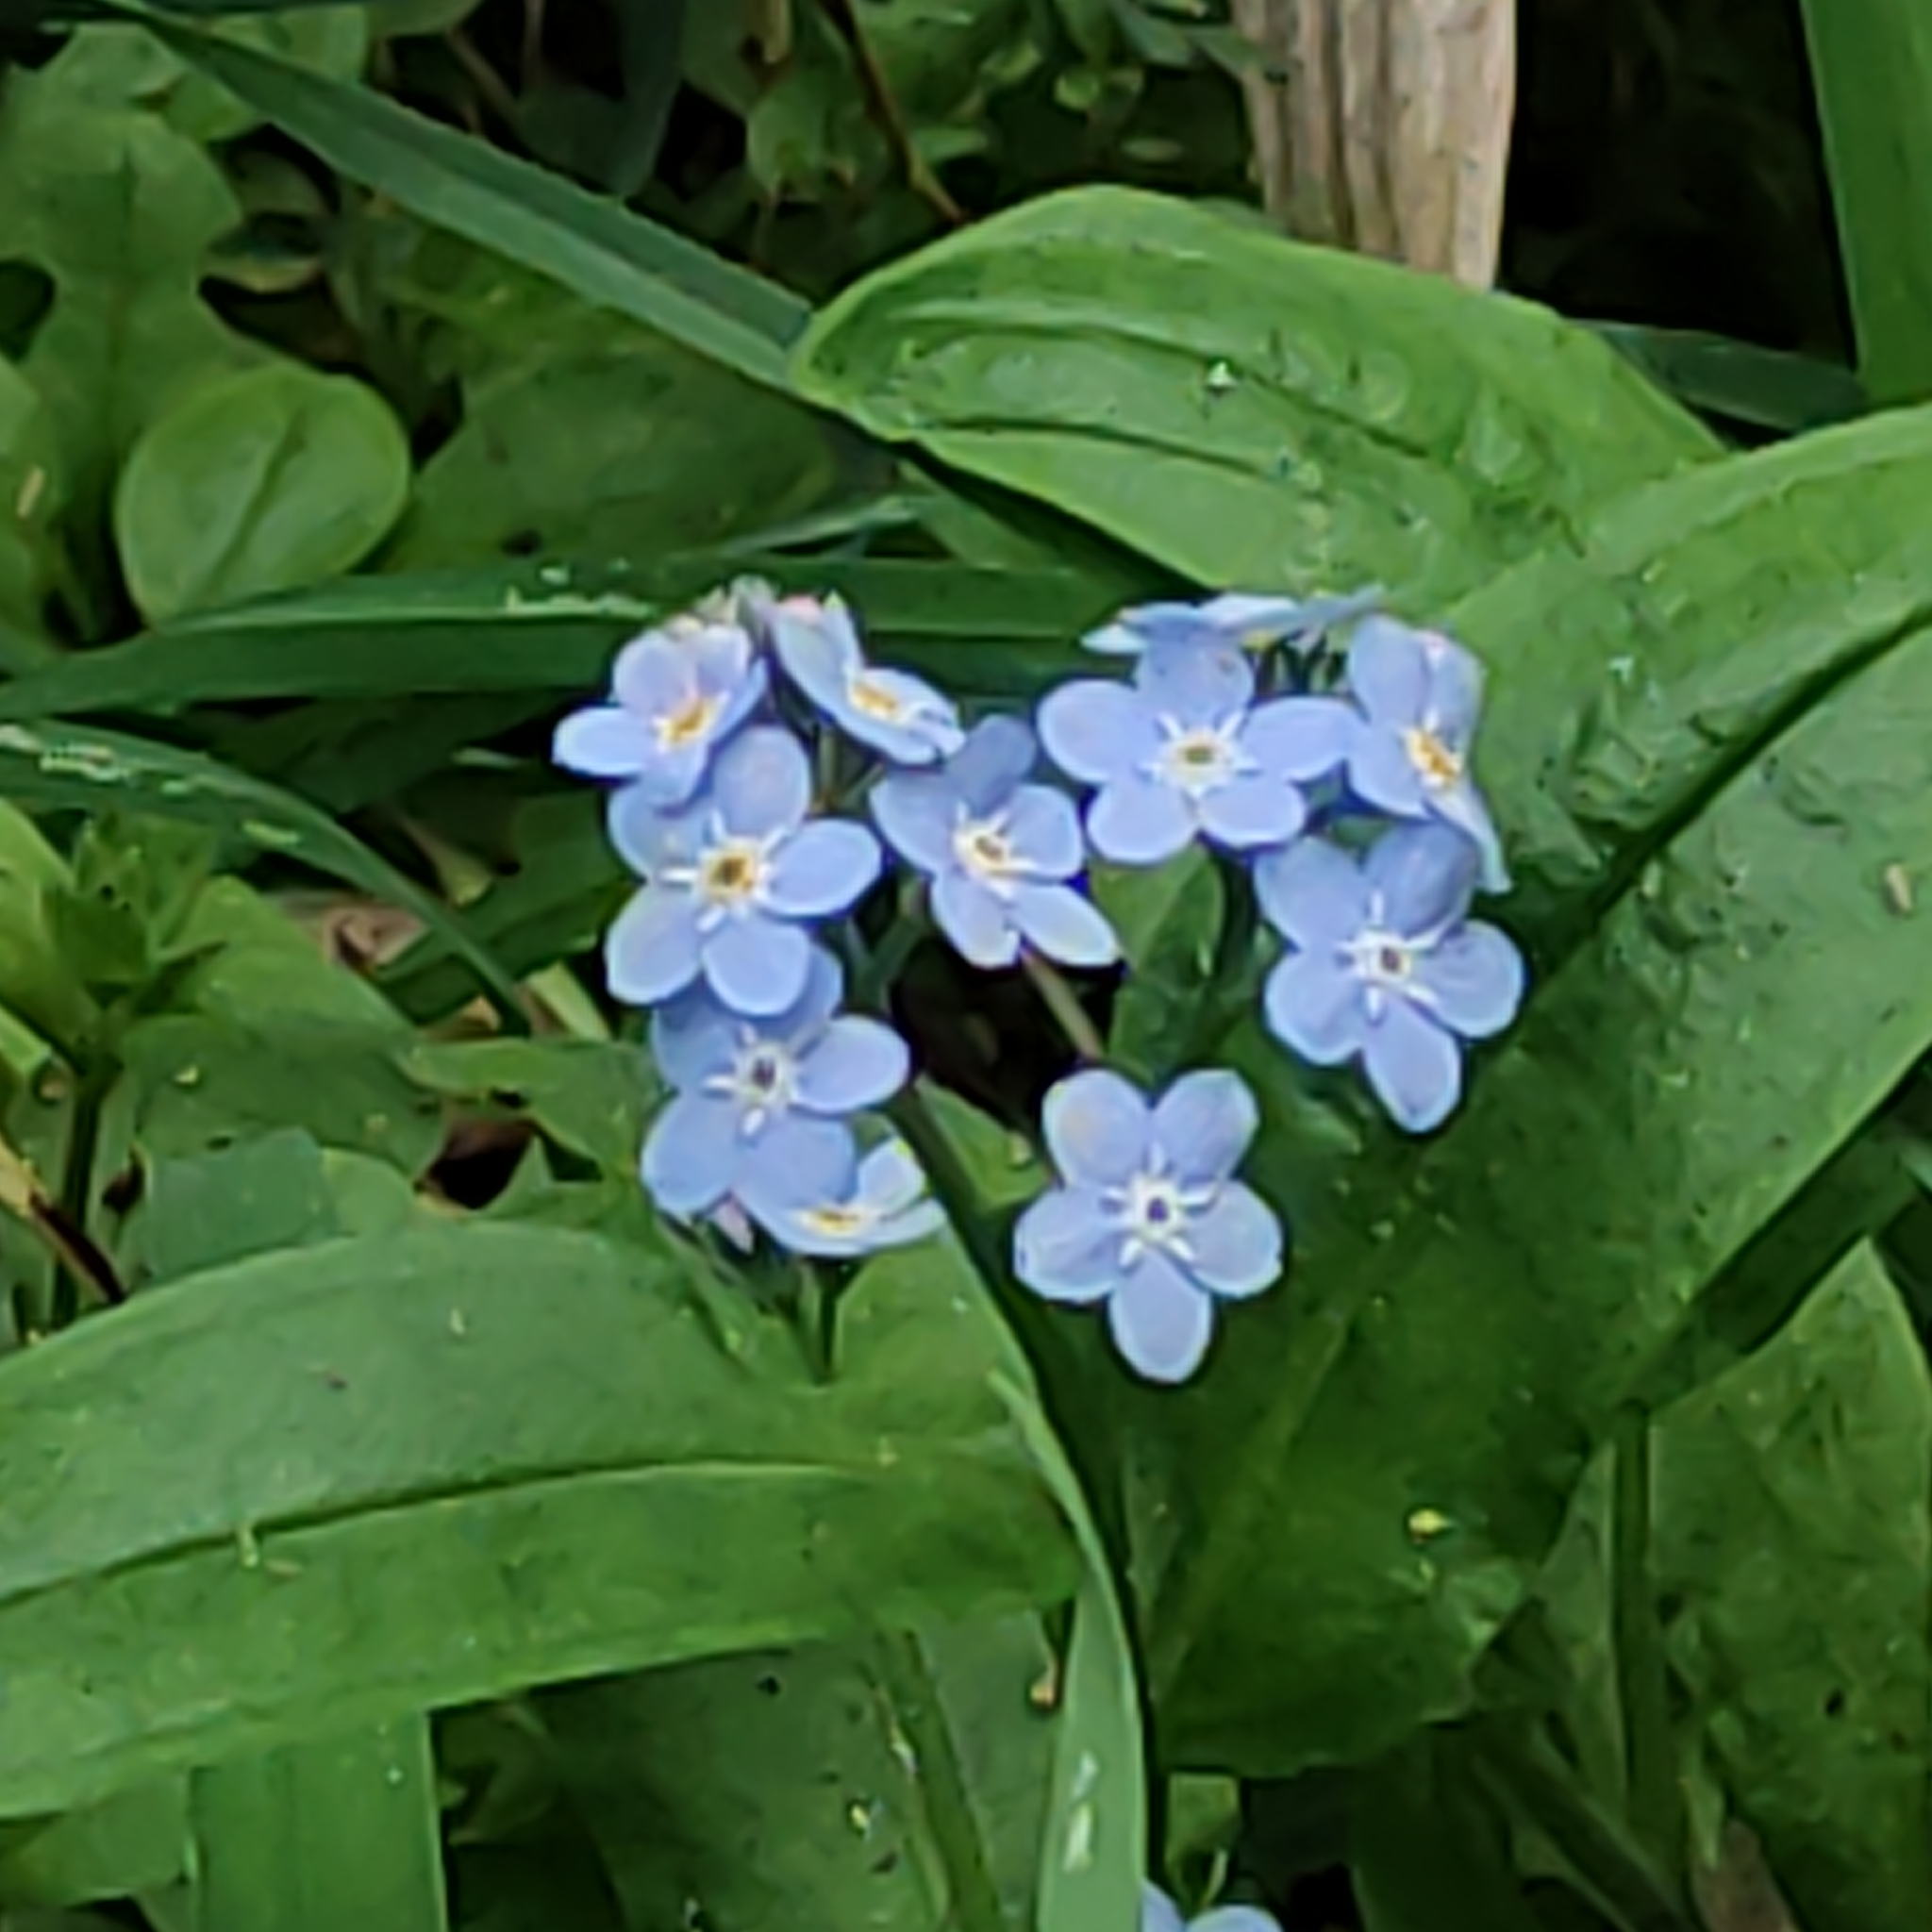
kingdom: Plantae
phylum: Tracheophyta
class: Magnoliopsida
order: Boraginales
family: Boraginaceae
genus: Myosotis
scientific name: Myosotis sylvatica
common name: Wood forget-me-not
